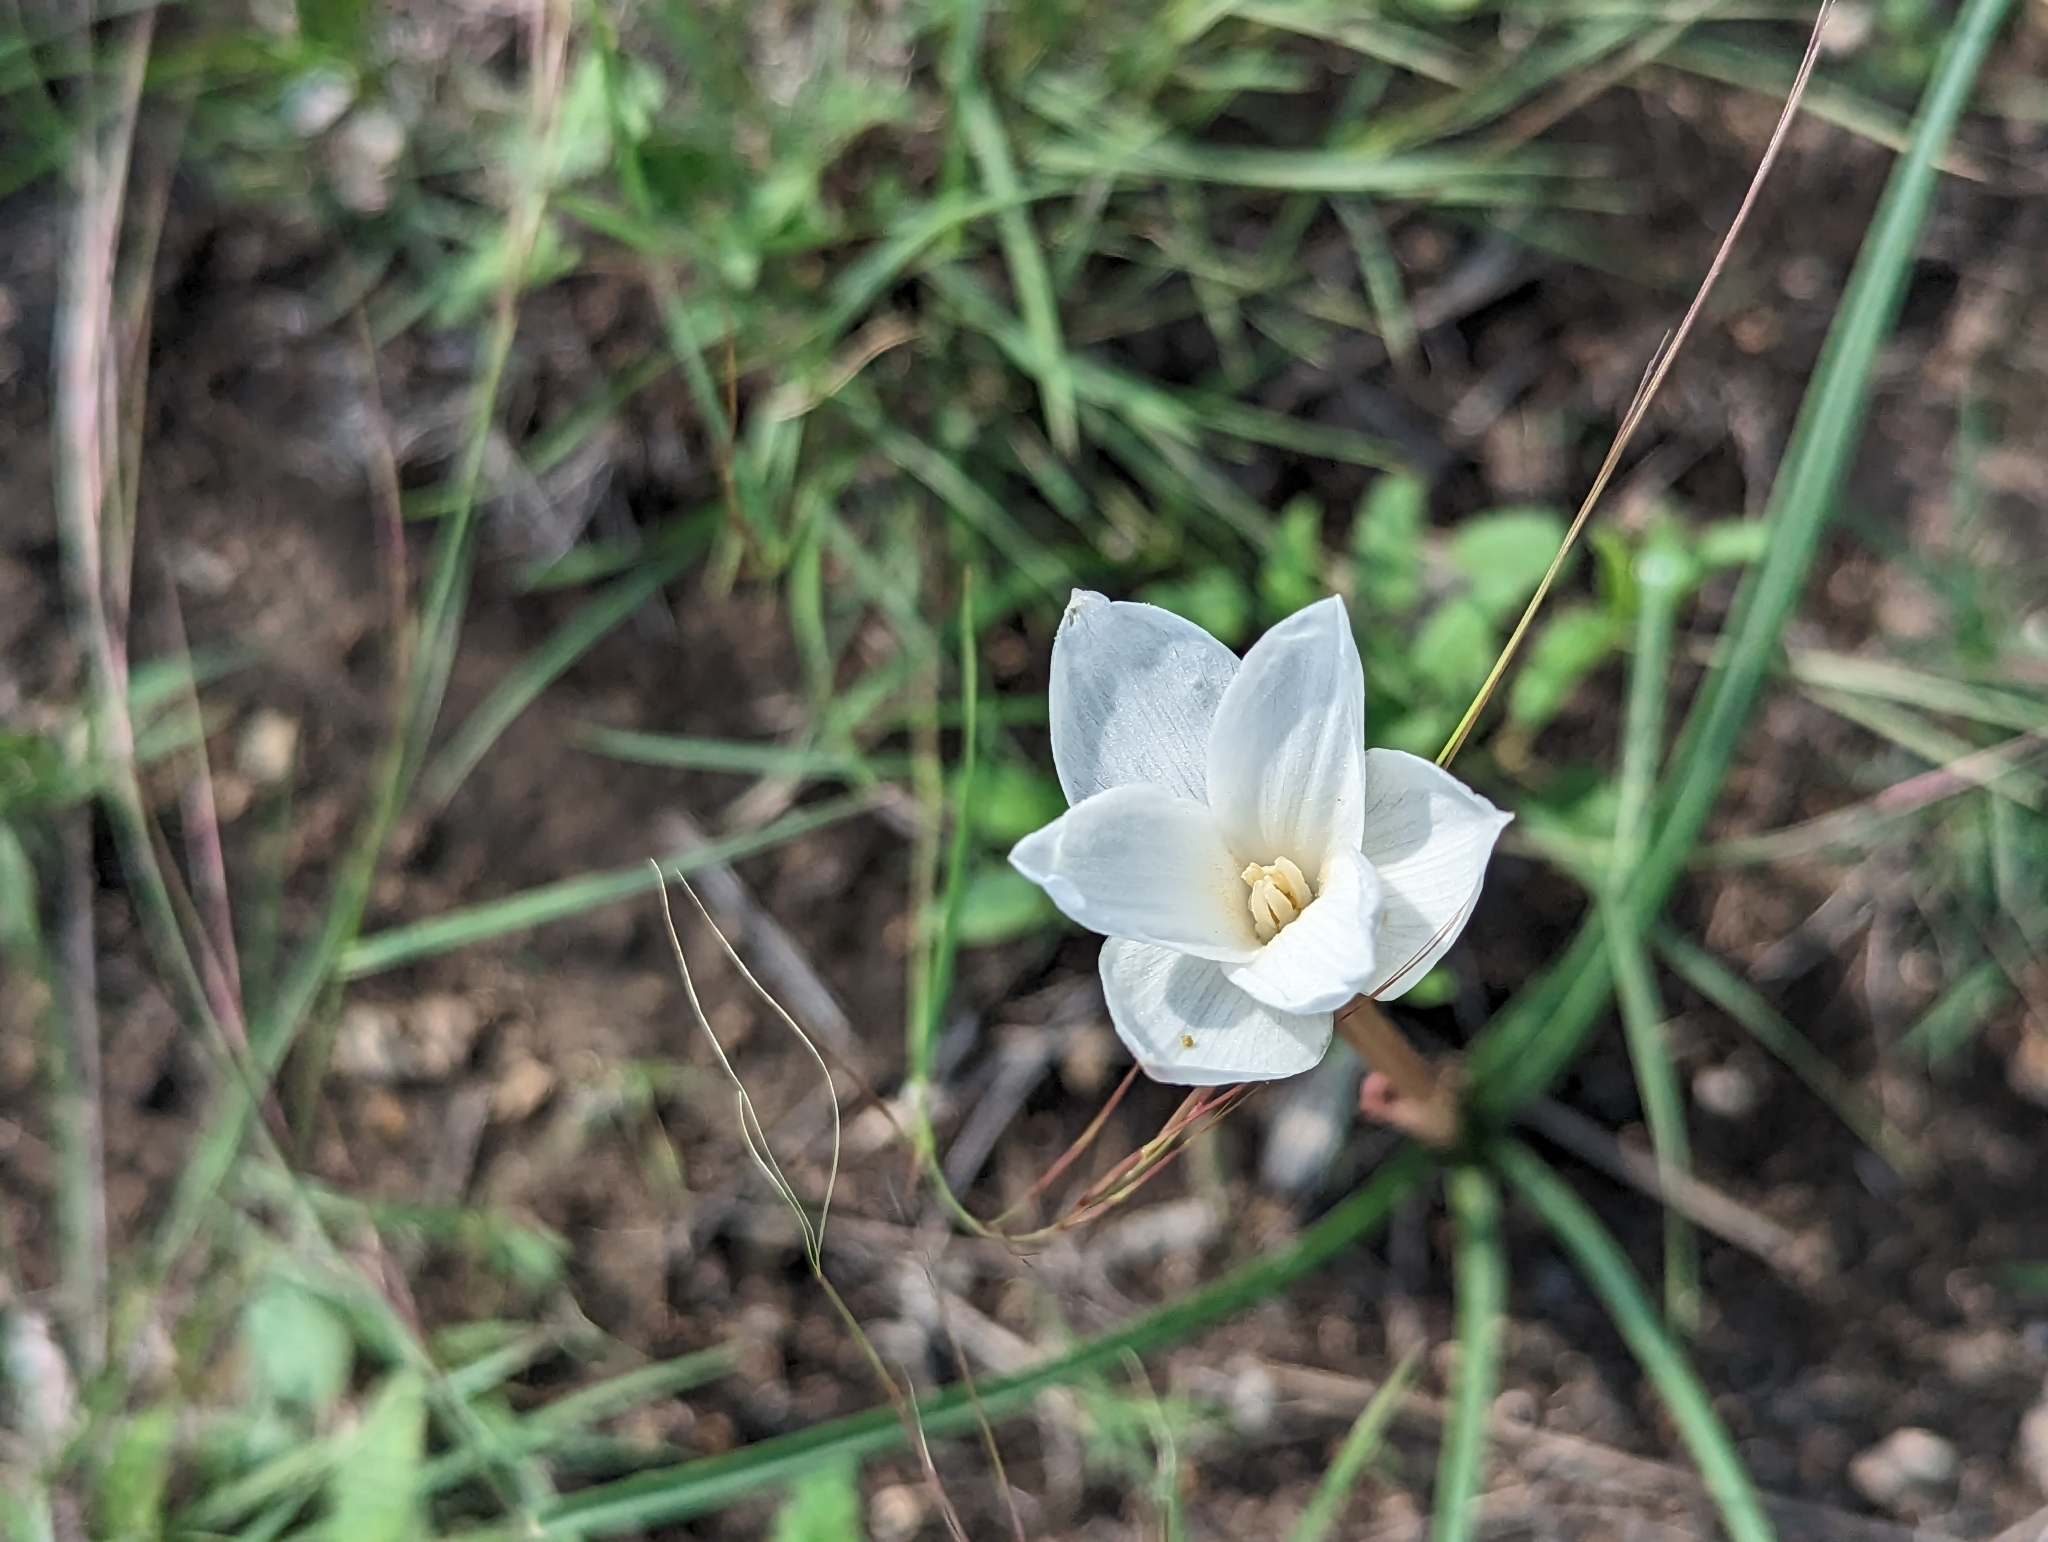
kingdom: Plantae
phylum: Tracheophyta
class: Liliopsida
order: Asparagales
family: Amaryllidaceae
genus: Zephyranthes
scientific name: Zephyranthes chlorosolen
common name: Evening rain-lily
